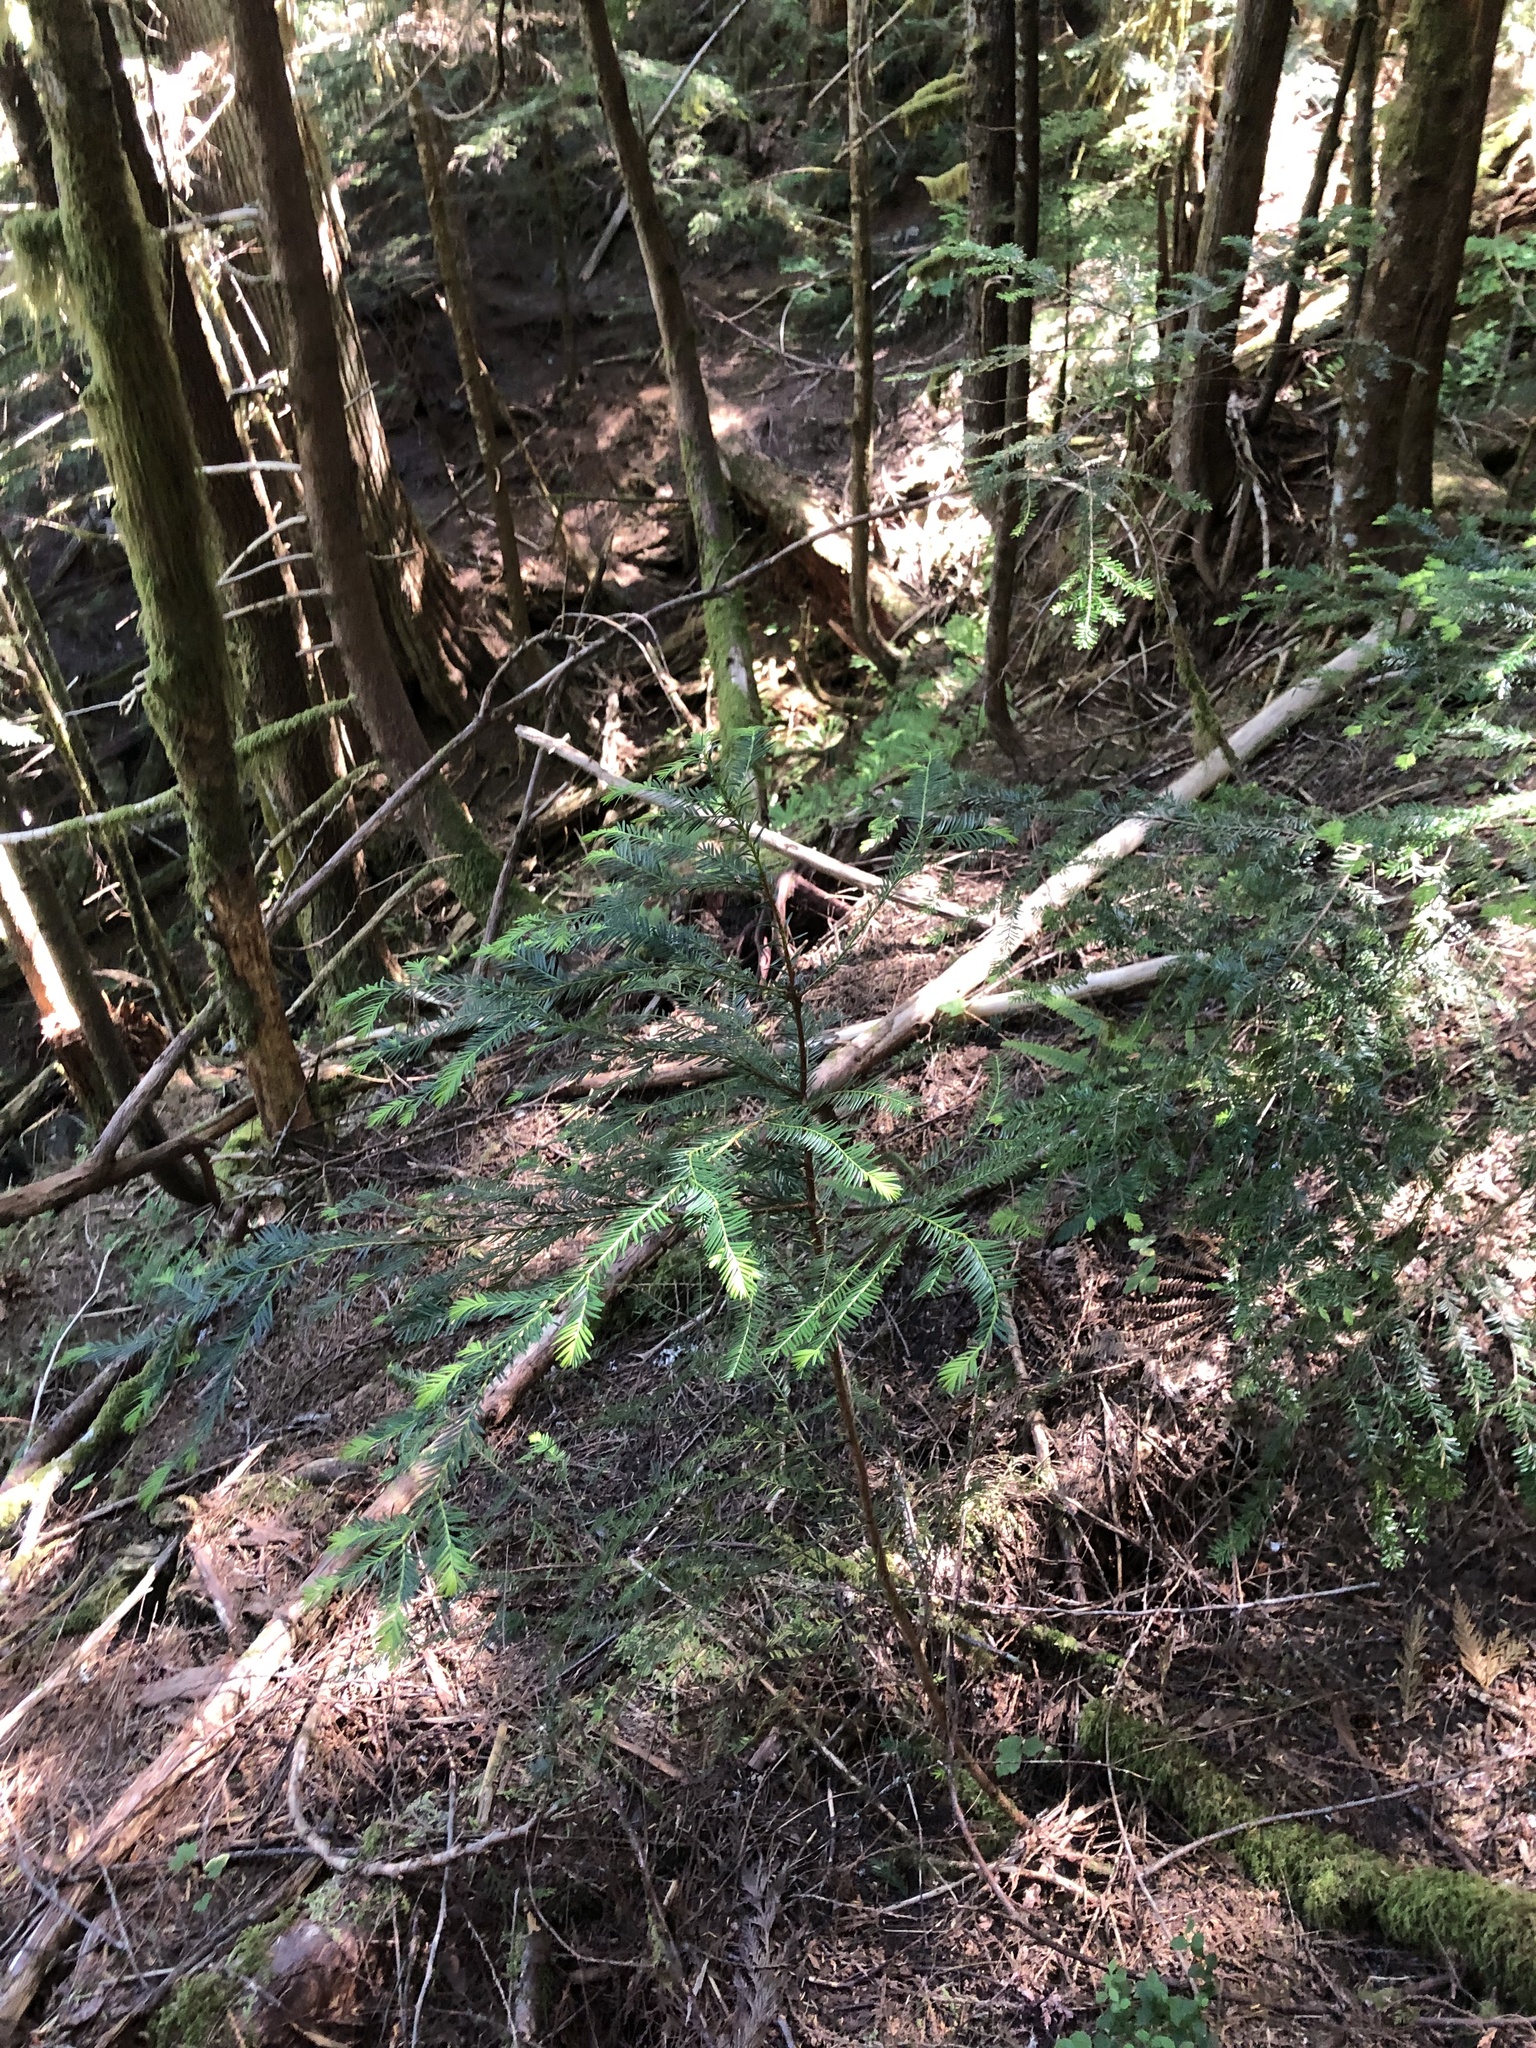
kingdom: Plantae
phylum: Tracheophyta
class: Pinopsida
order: Pinales
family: Taxaceae
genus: Taxus
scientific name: Taxus brevifolia
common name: Pacific yew
